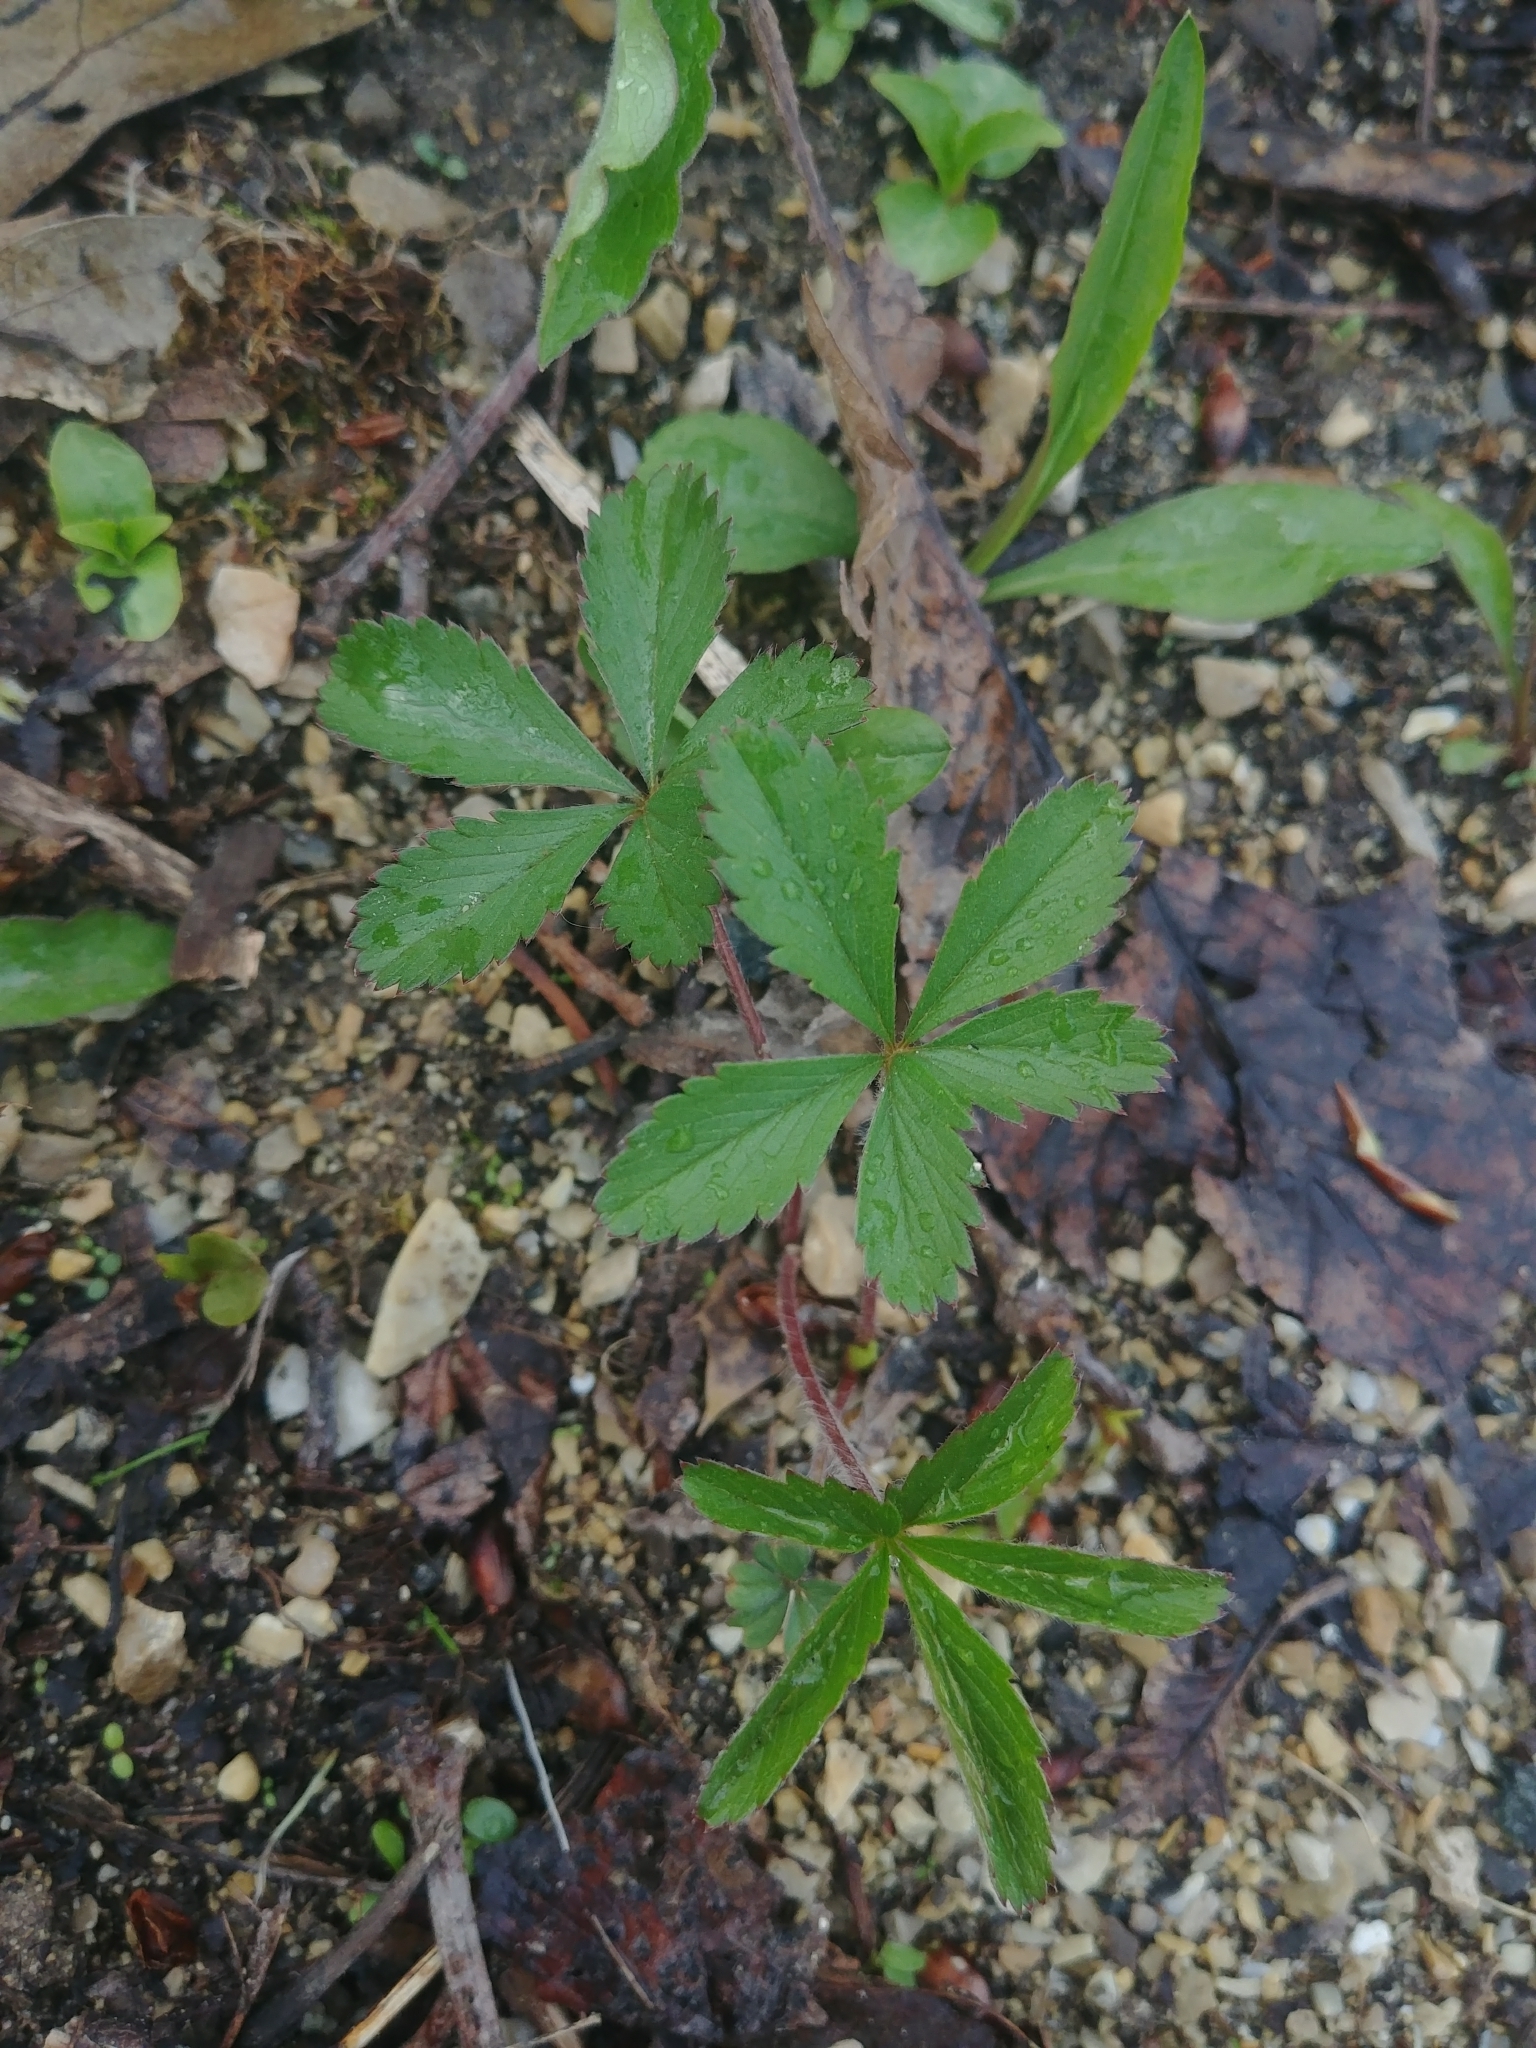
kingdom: Plantae
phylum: Tracheophyta
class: Magnoliopsida
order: Rosales
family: Rosaceae
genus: Potentilla
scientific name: Potentilla simplex
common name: Old field cinquefoil
